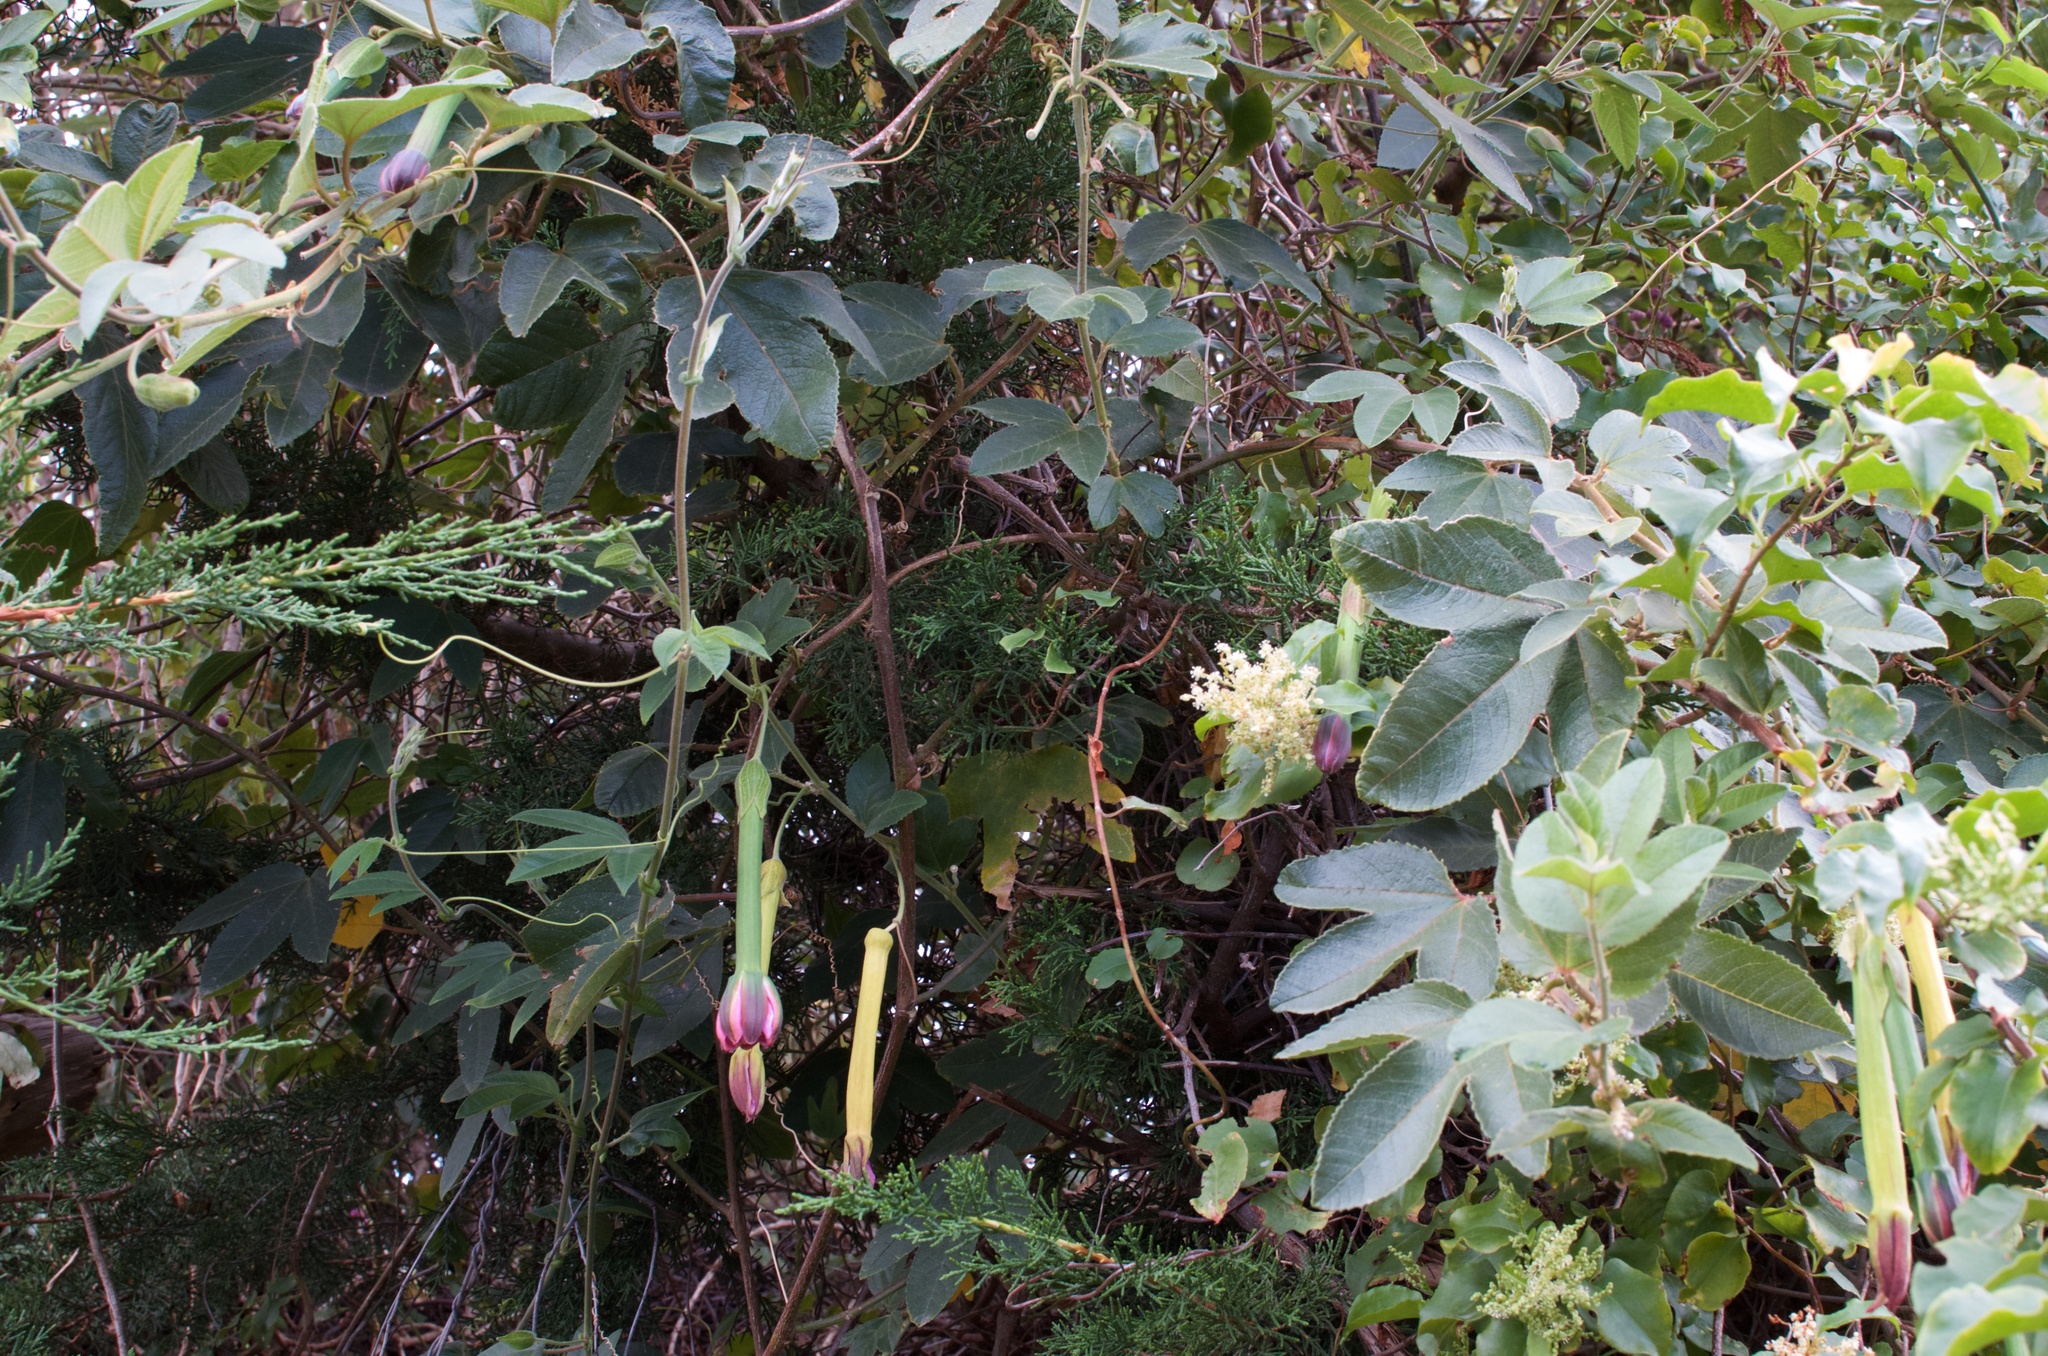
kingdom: Plantae
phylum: Tracheophyta
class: Magnoliopsida
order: Malpighiales
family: Passifloraceae
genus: Passiflora
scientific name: Passiflora tripartita
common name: Banana poka
